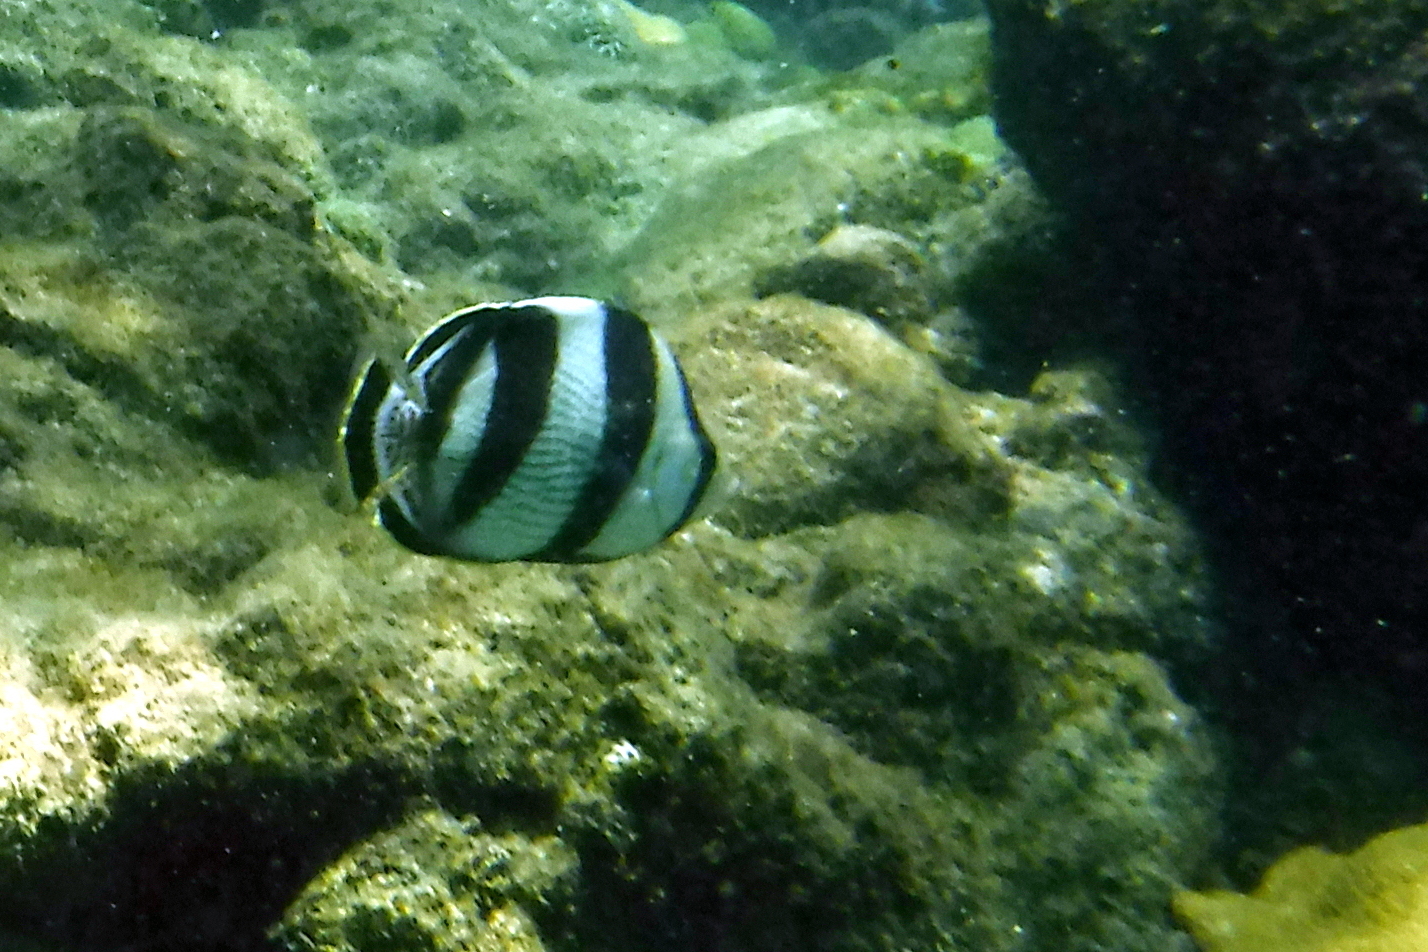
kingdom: Animalia
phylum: Chordata
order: Perciformes
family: Chaetodontidae
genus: Chaetodon
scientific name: Chaetodon striatus
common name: Banded butterflyfish
